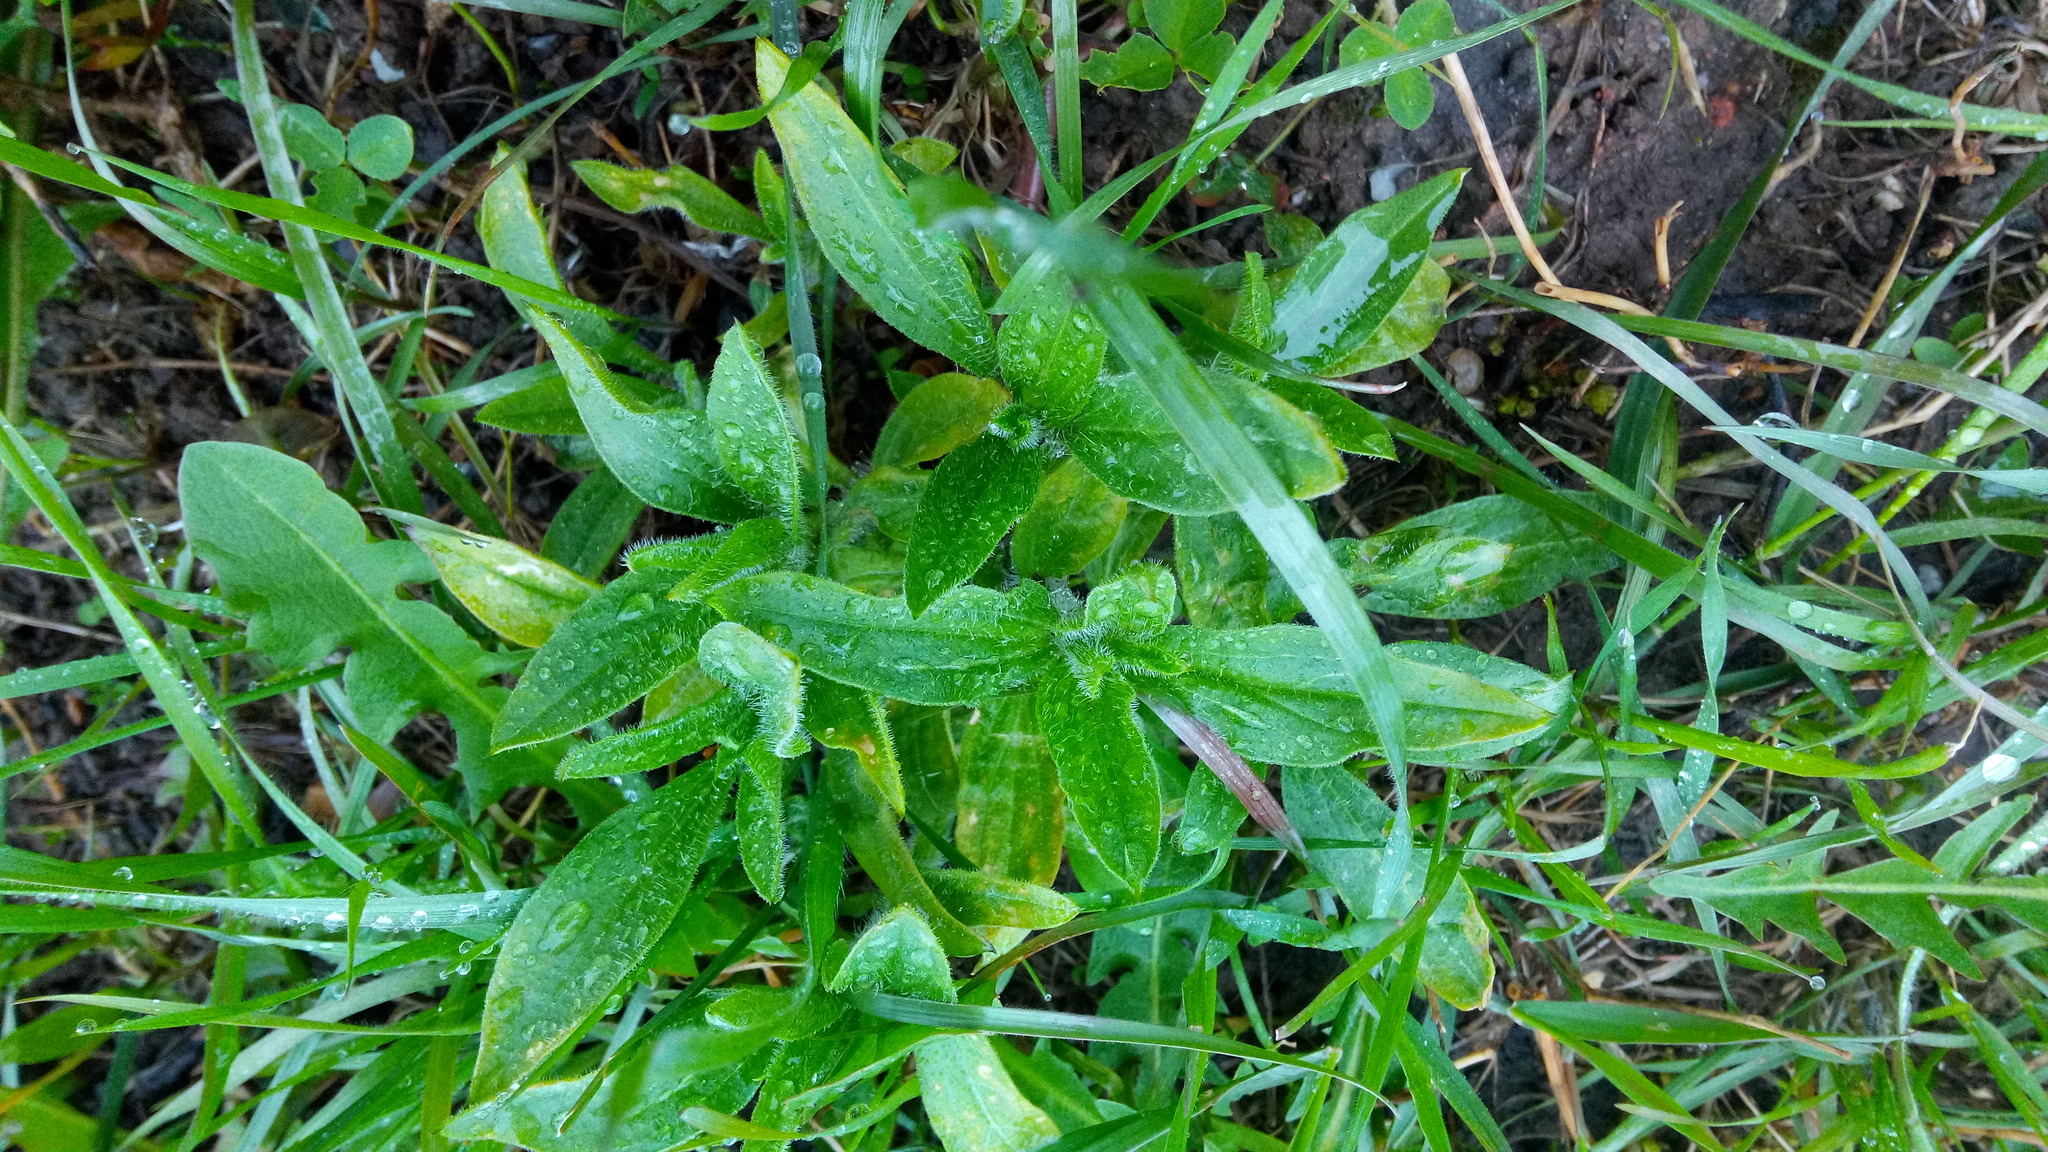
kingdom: Plantae
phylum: Tracheophyta
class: Magnoliopsida
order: Caryophyllales
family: Caryophyllaceae
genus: Silene
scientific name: Silene latifolia
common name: White campion
